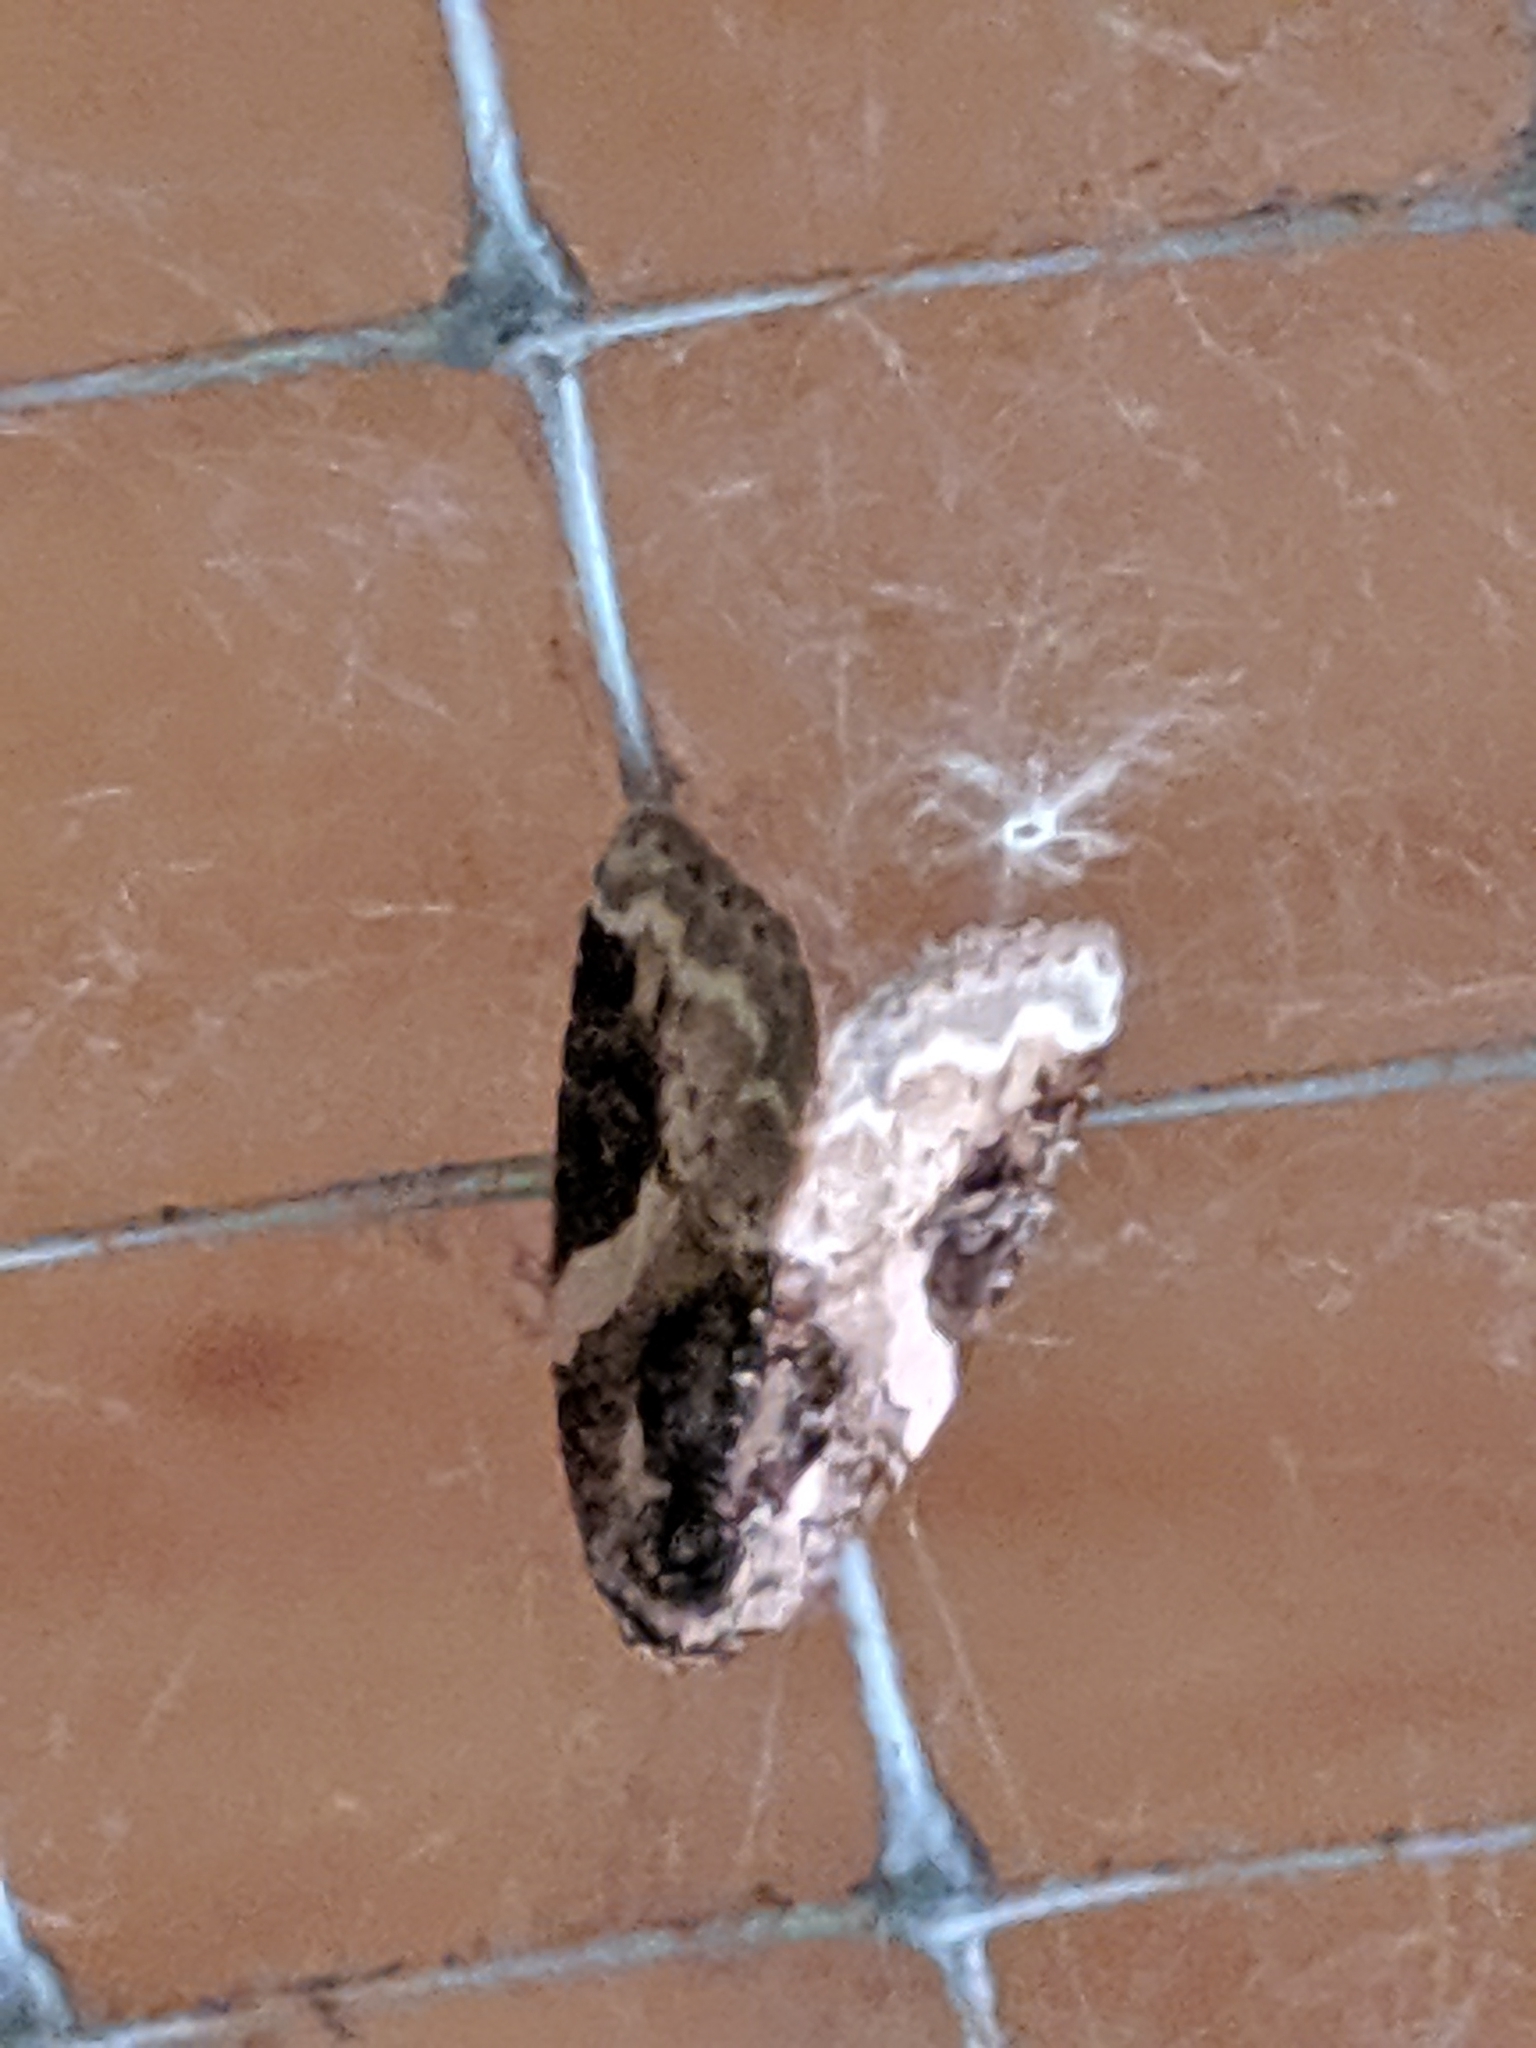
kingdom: Animalia
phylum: Arthropoda
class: Insecta
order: Lepidoptera
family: Noctuidae
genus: Pseudeustrotia
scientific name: Pseudeustrotia carneola
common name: Pink-barred lithacodia moth
